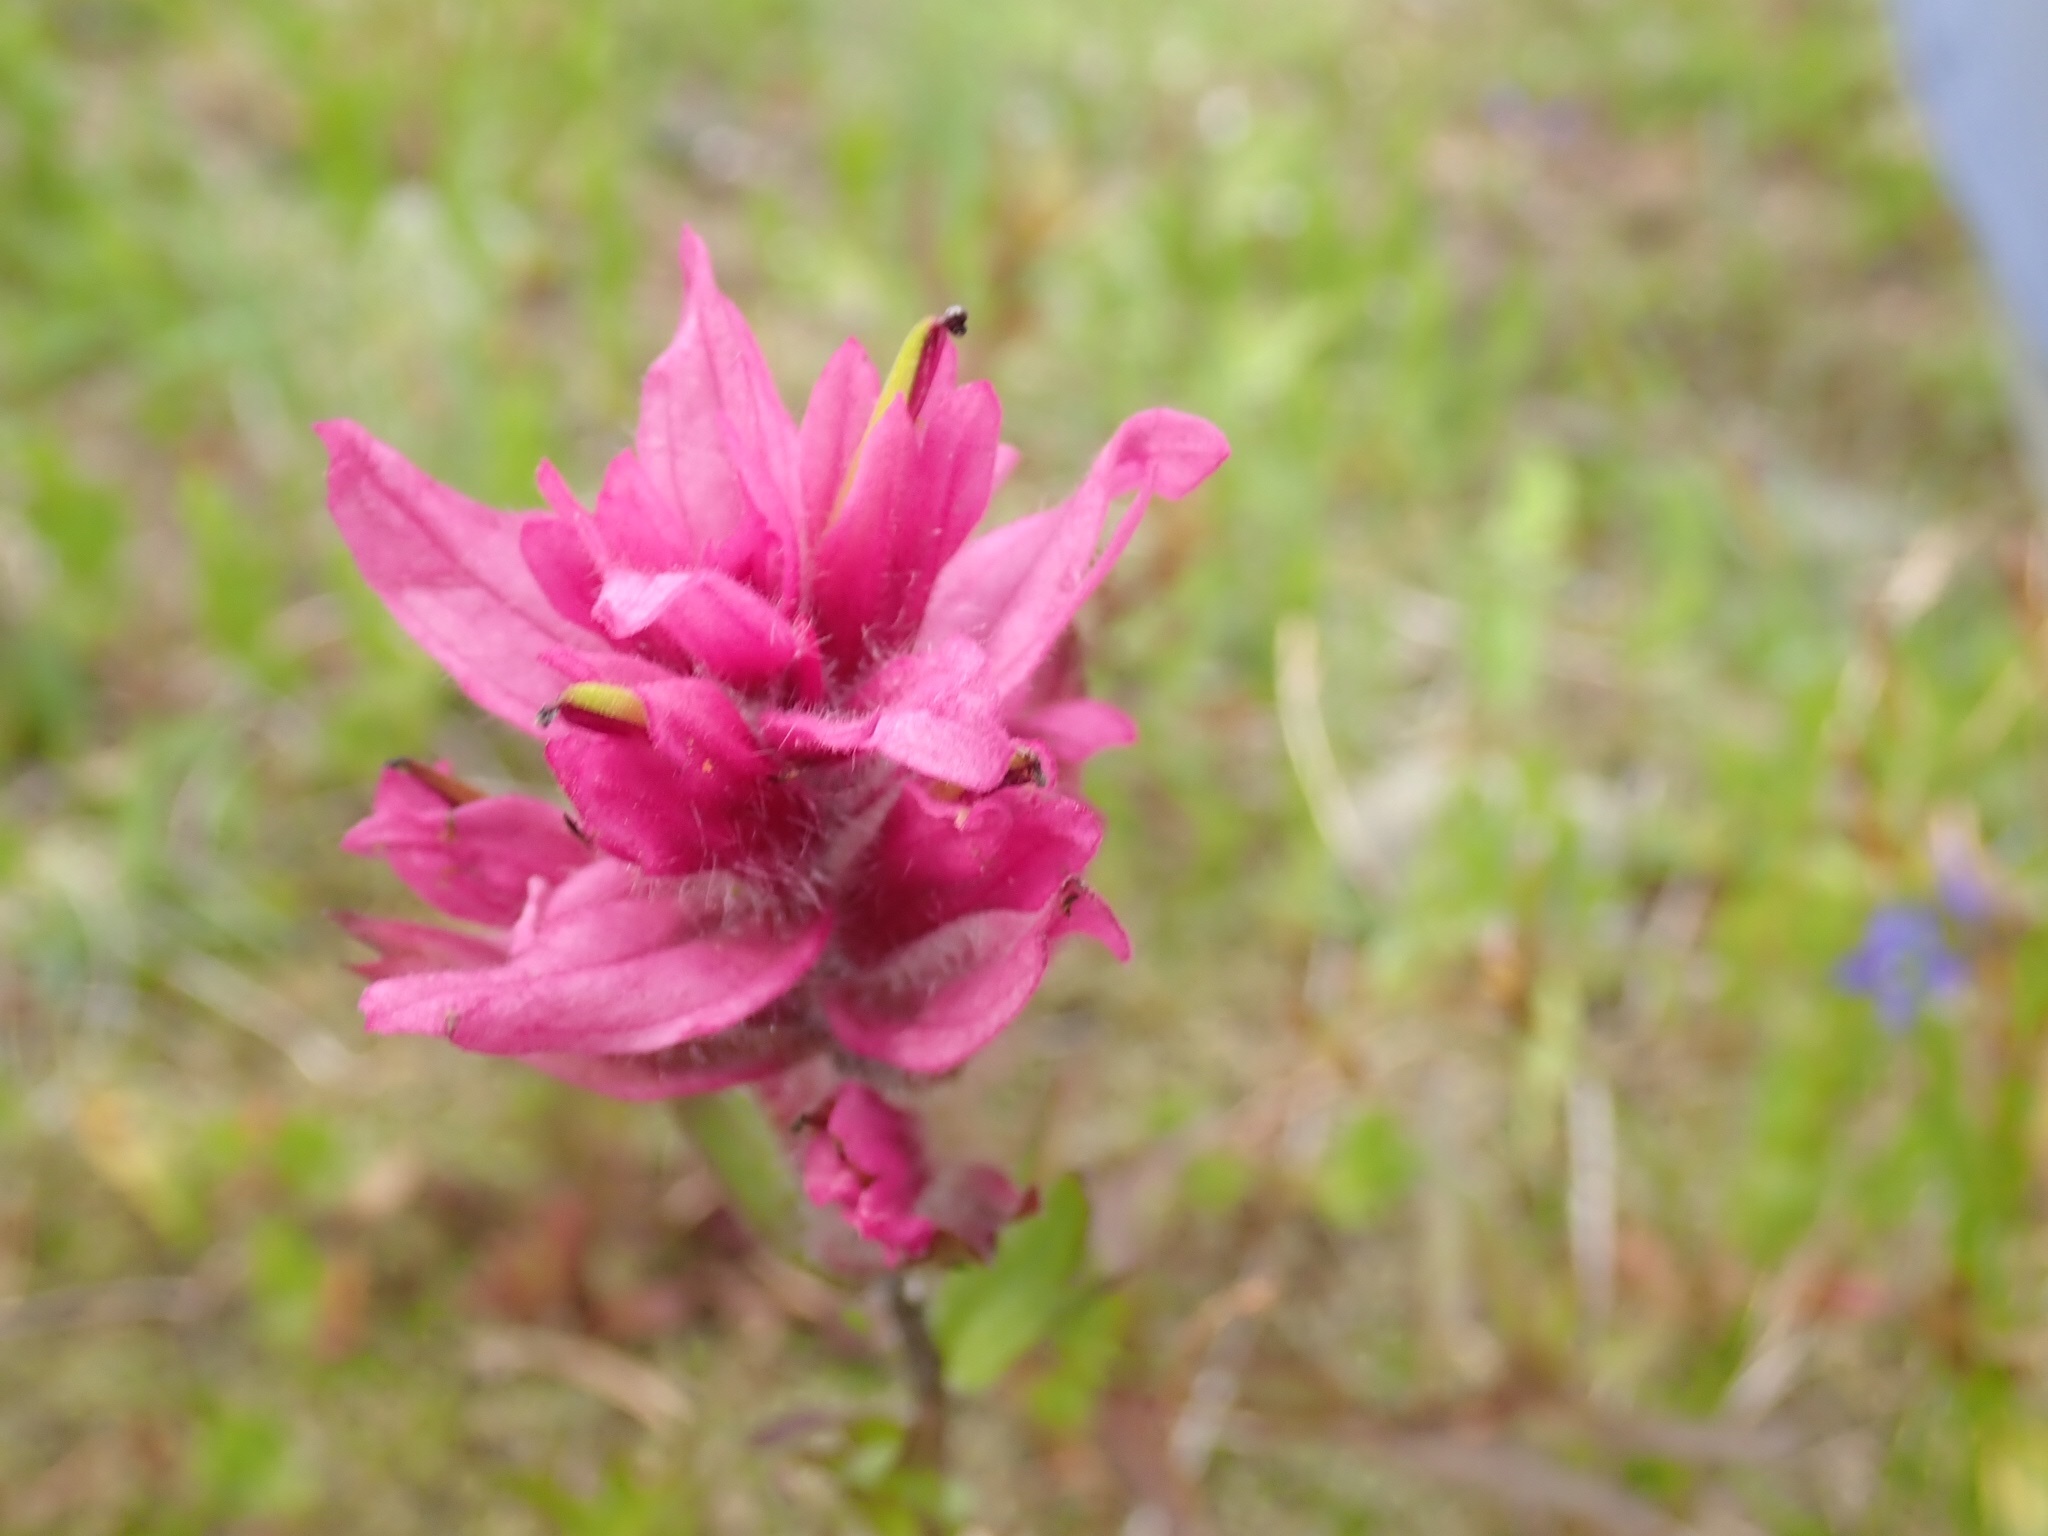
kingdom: Plantae
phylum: Tracheophyta
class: Magnoliopsida
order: Lamiales
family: Orobanchaceae
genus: Castilleja
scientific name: Castilleja parviflora
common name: Mountain paintbrush
